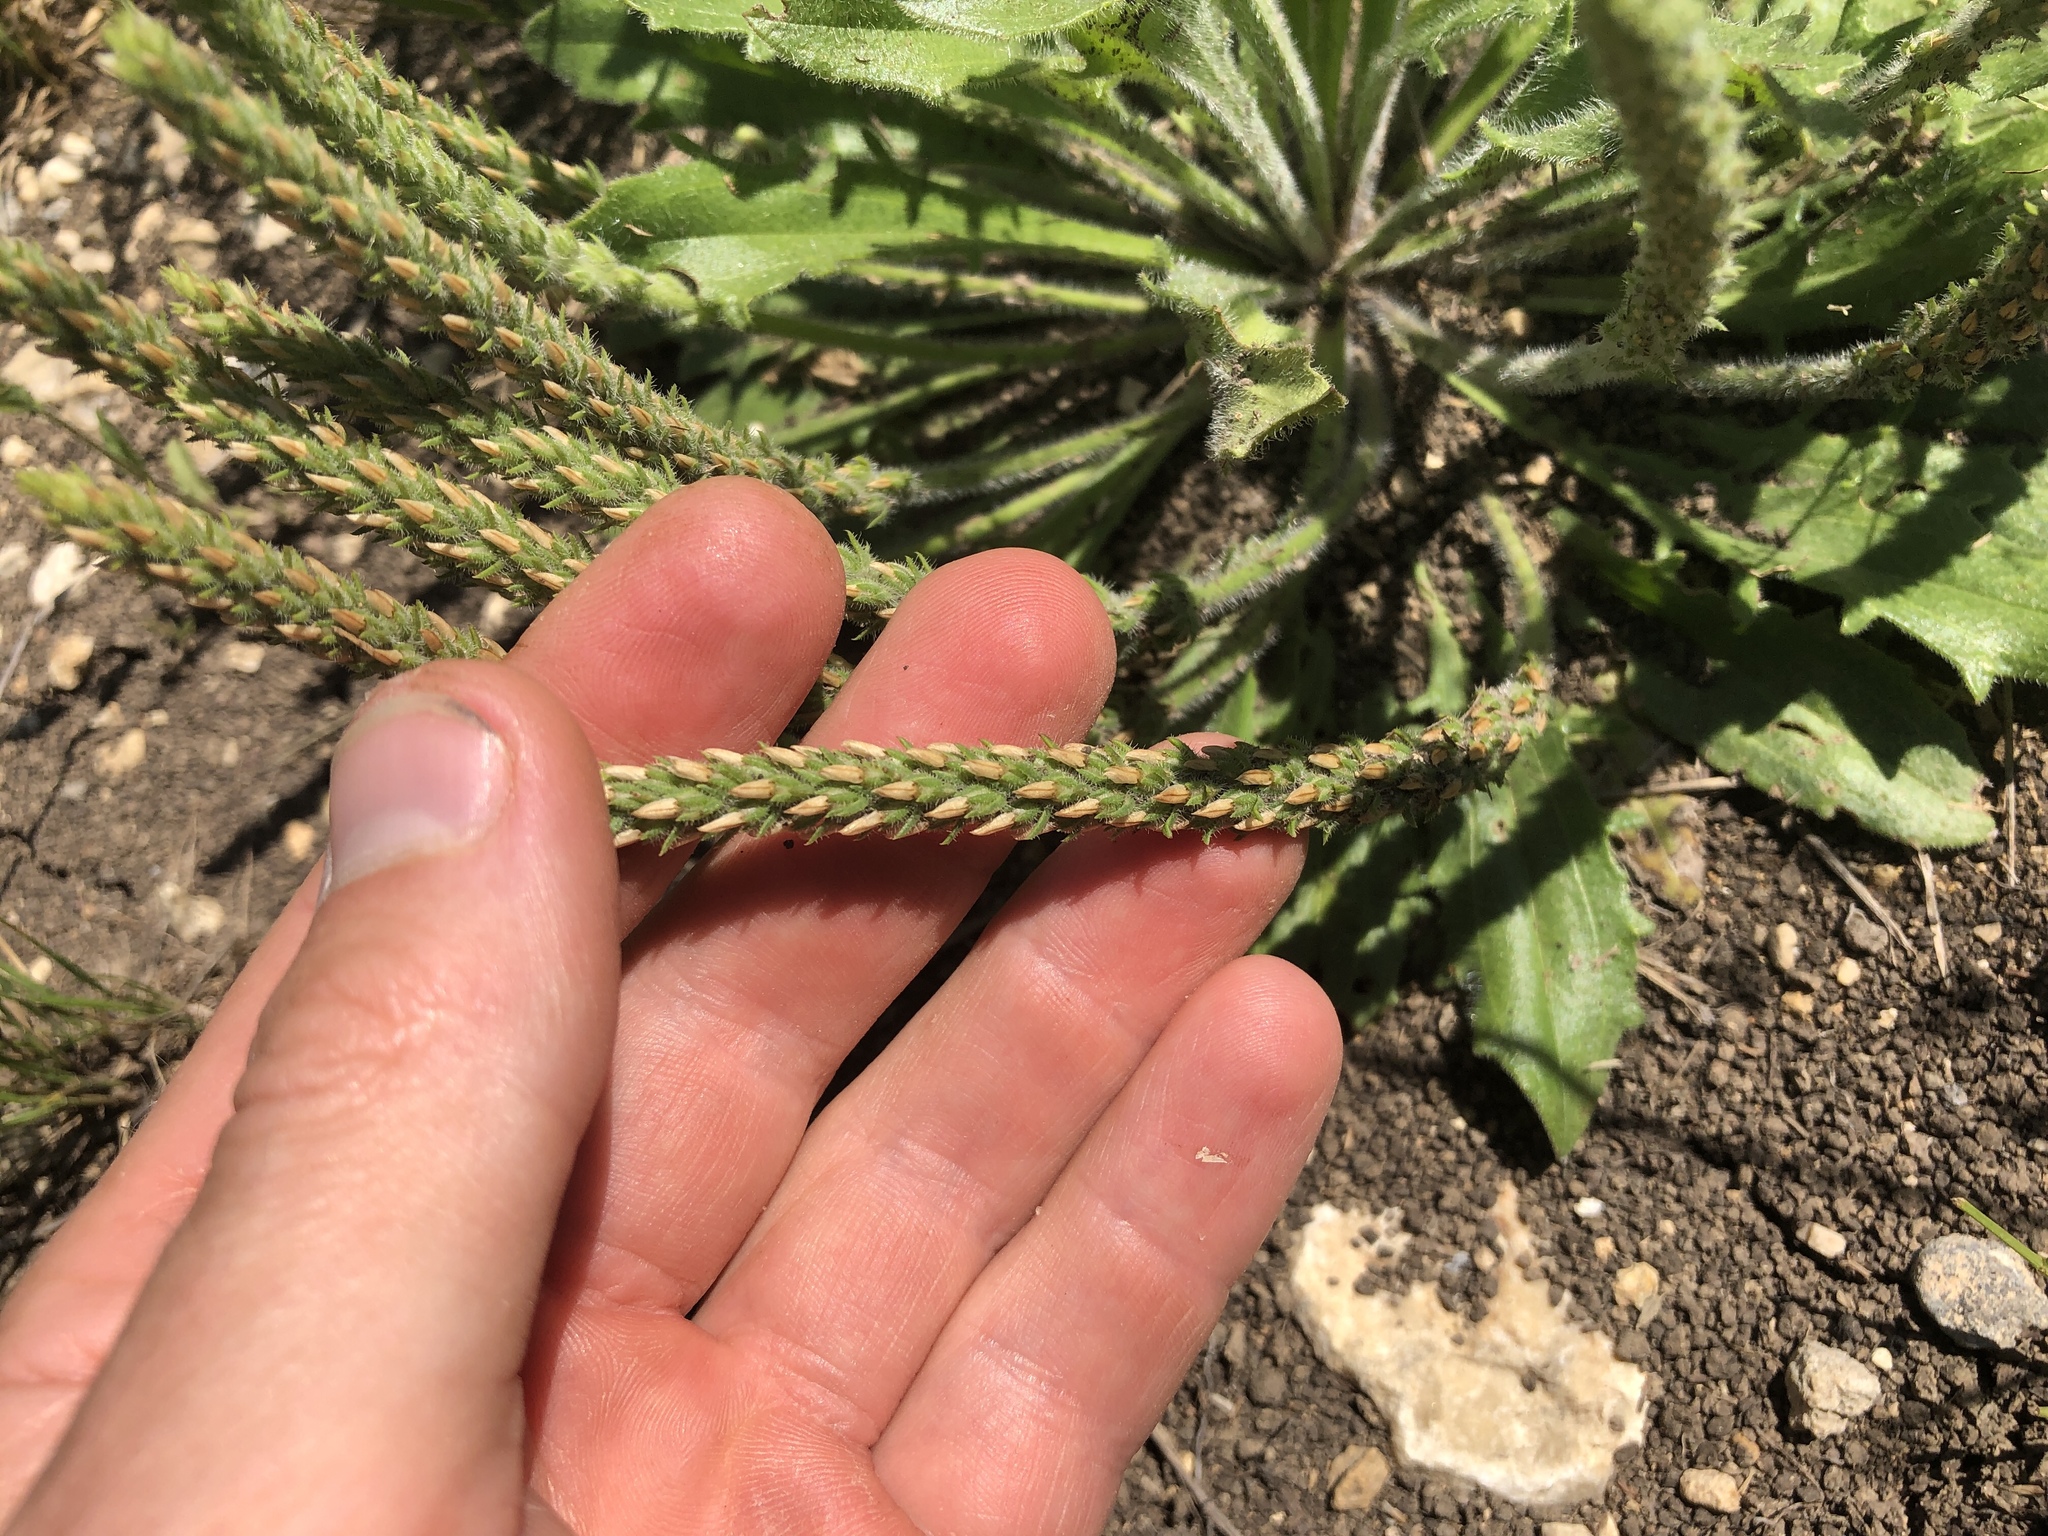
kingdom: Plantae
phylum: Tracheophyta
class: Magnoliopsida
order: Lamiales
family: Plantaginaceae
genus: Plantago
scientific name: Plantago rhodosperma
